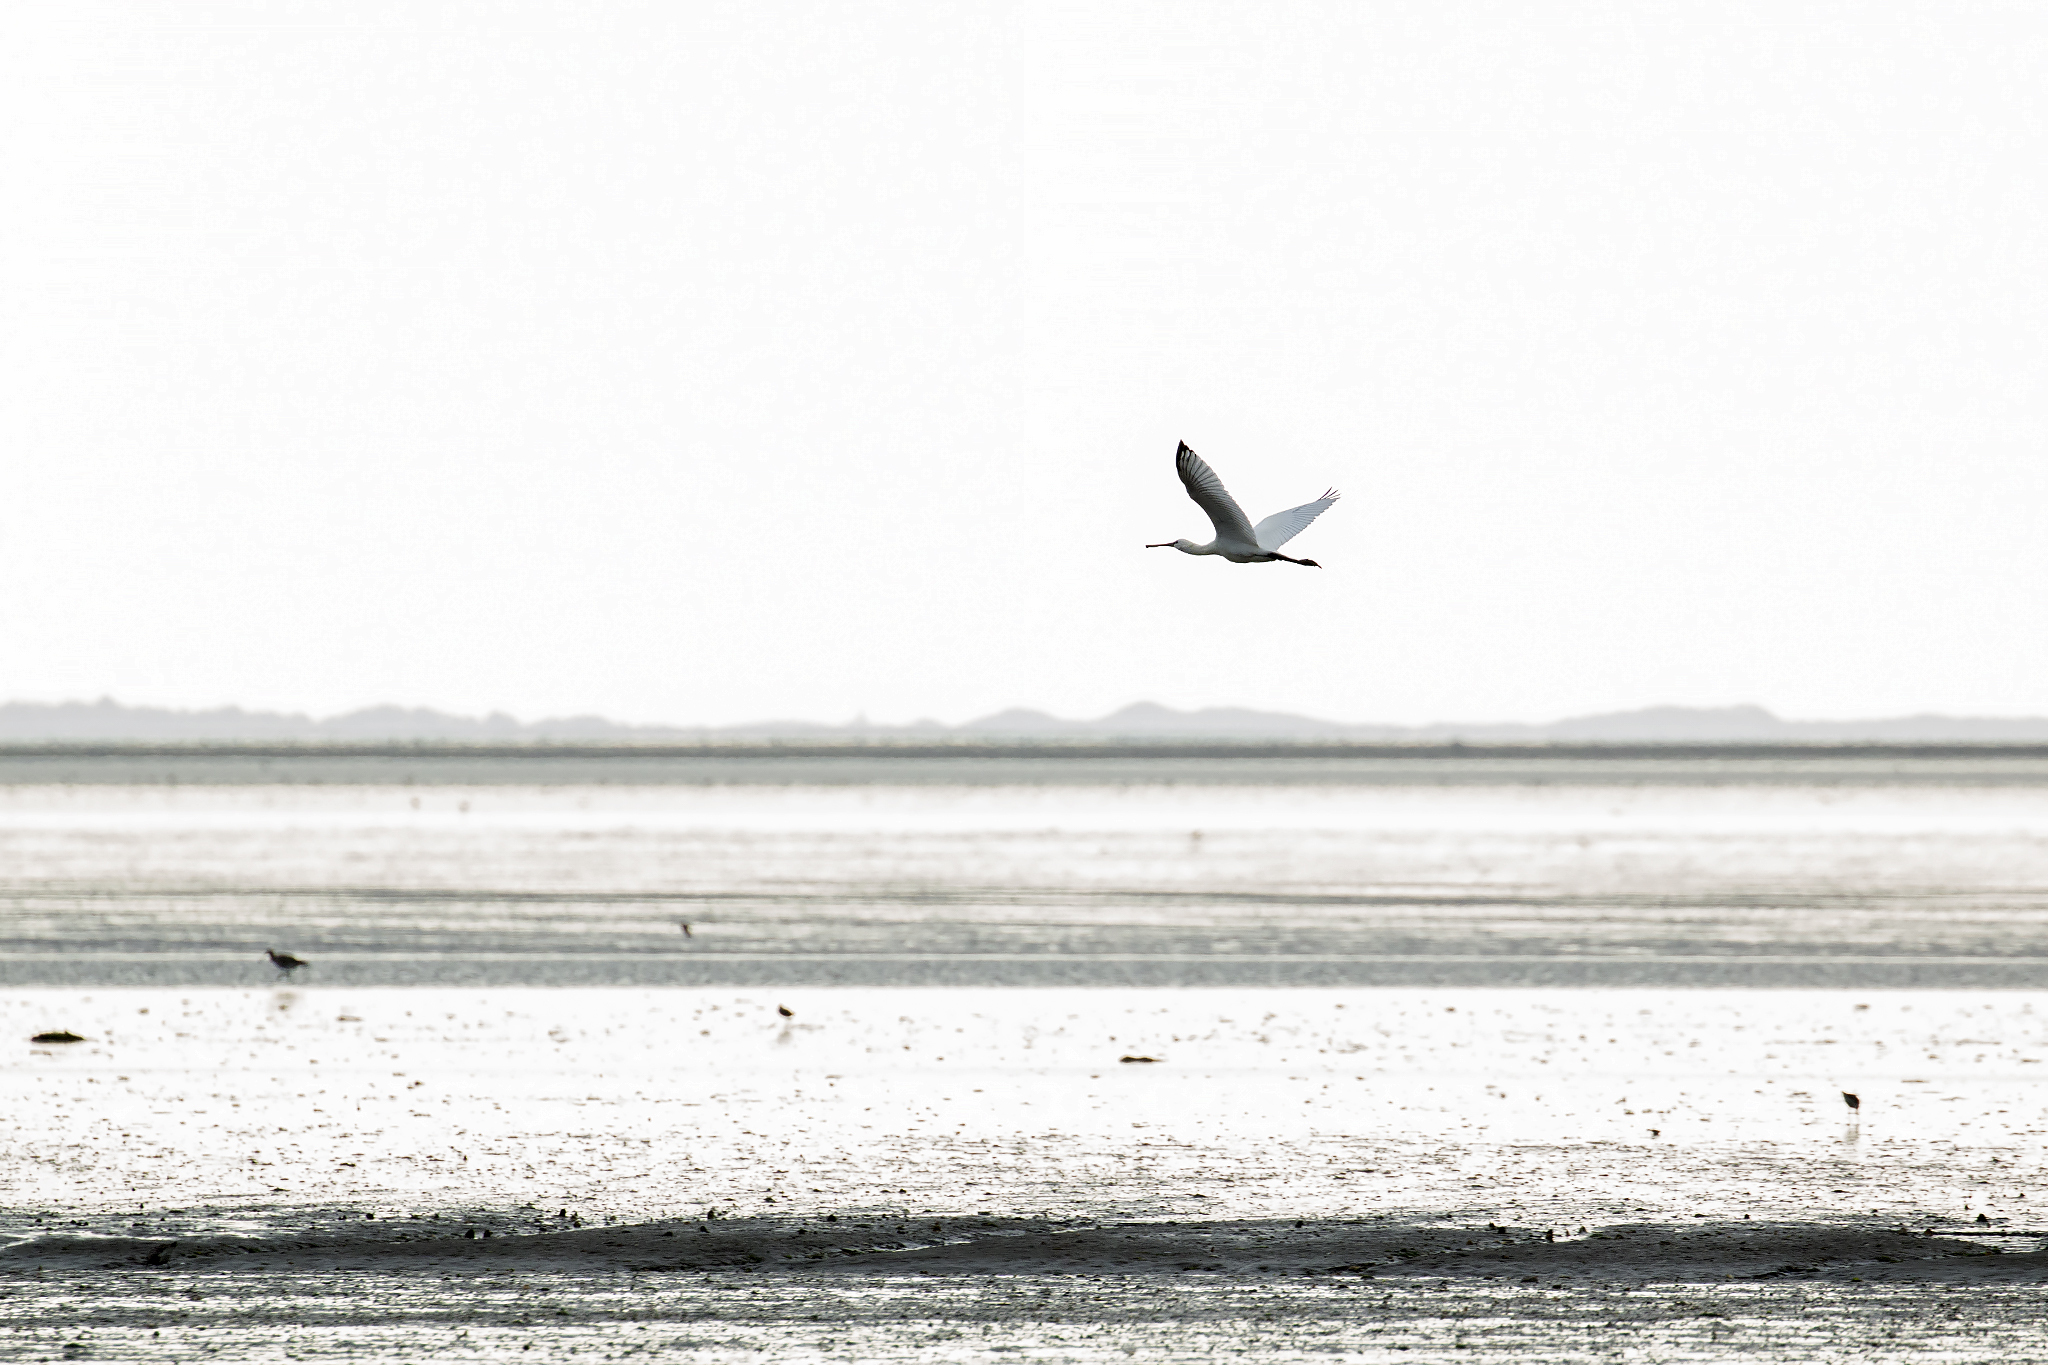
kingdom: Animalia
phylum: Chordata
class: Aves
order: Pelecaniformes
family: Threskiornithidae
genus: Platalea
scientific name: Platalea leucorodia
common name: Eurasian spoonbill
